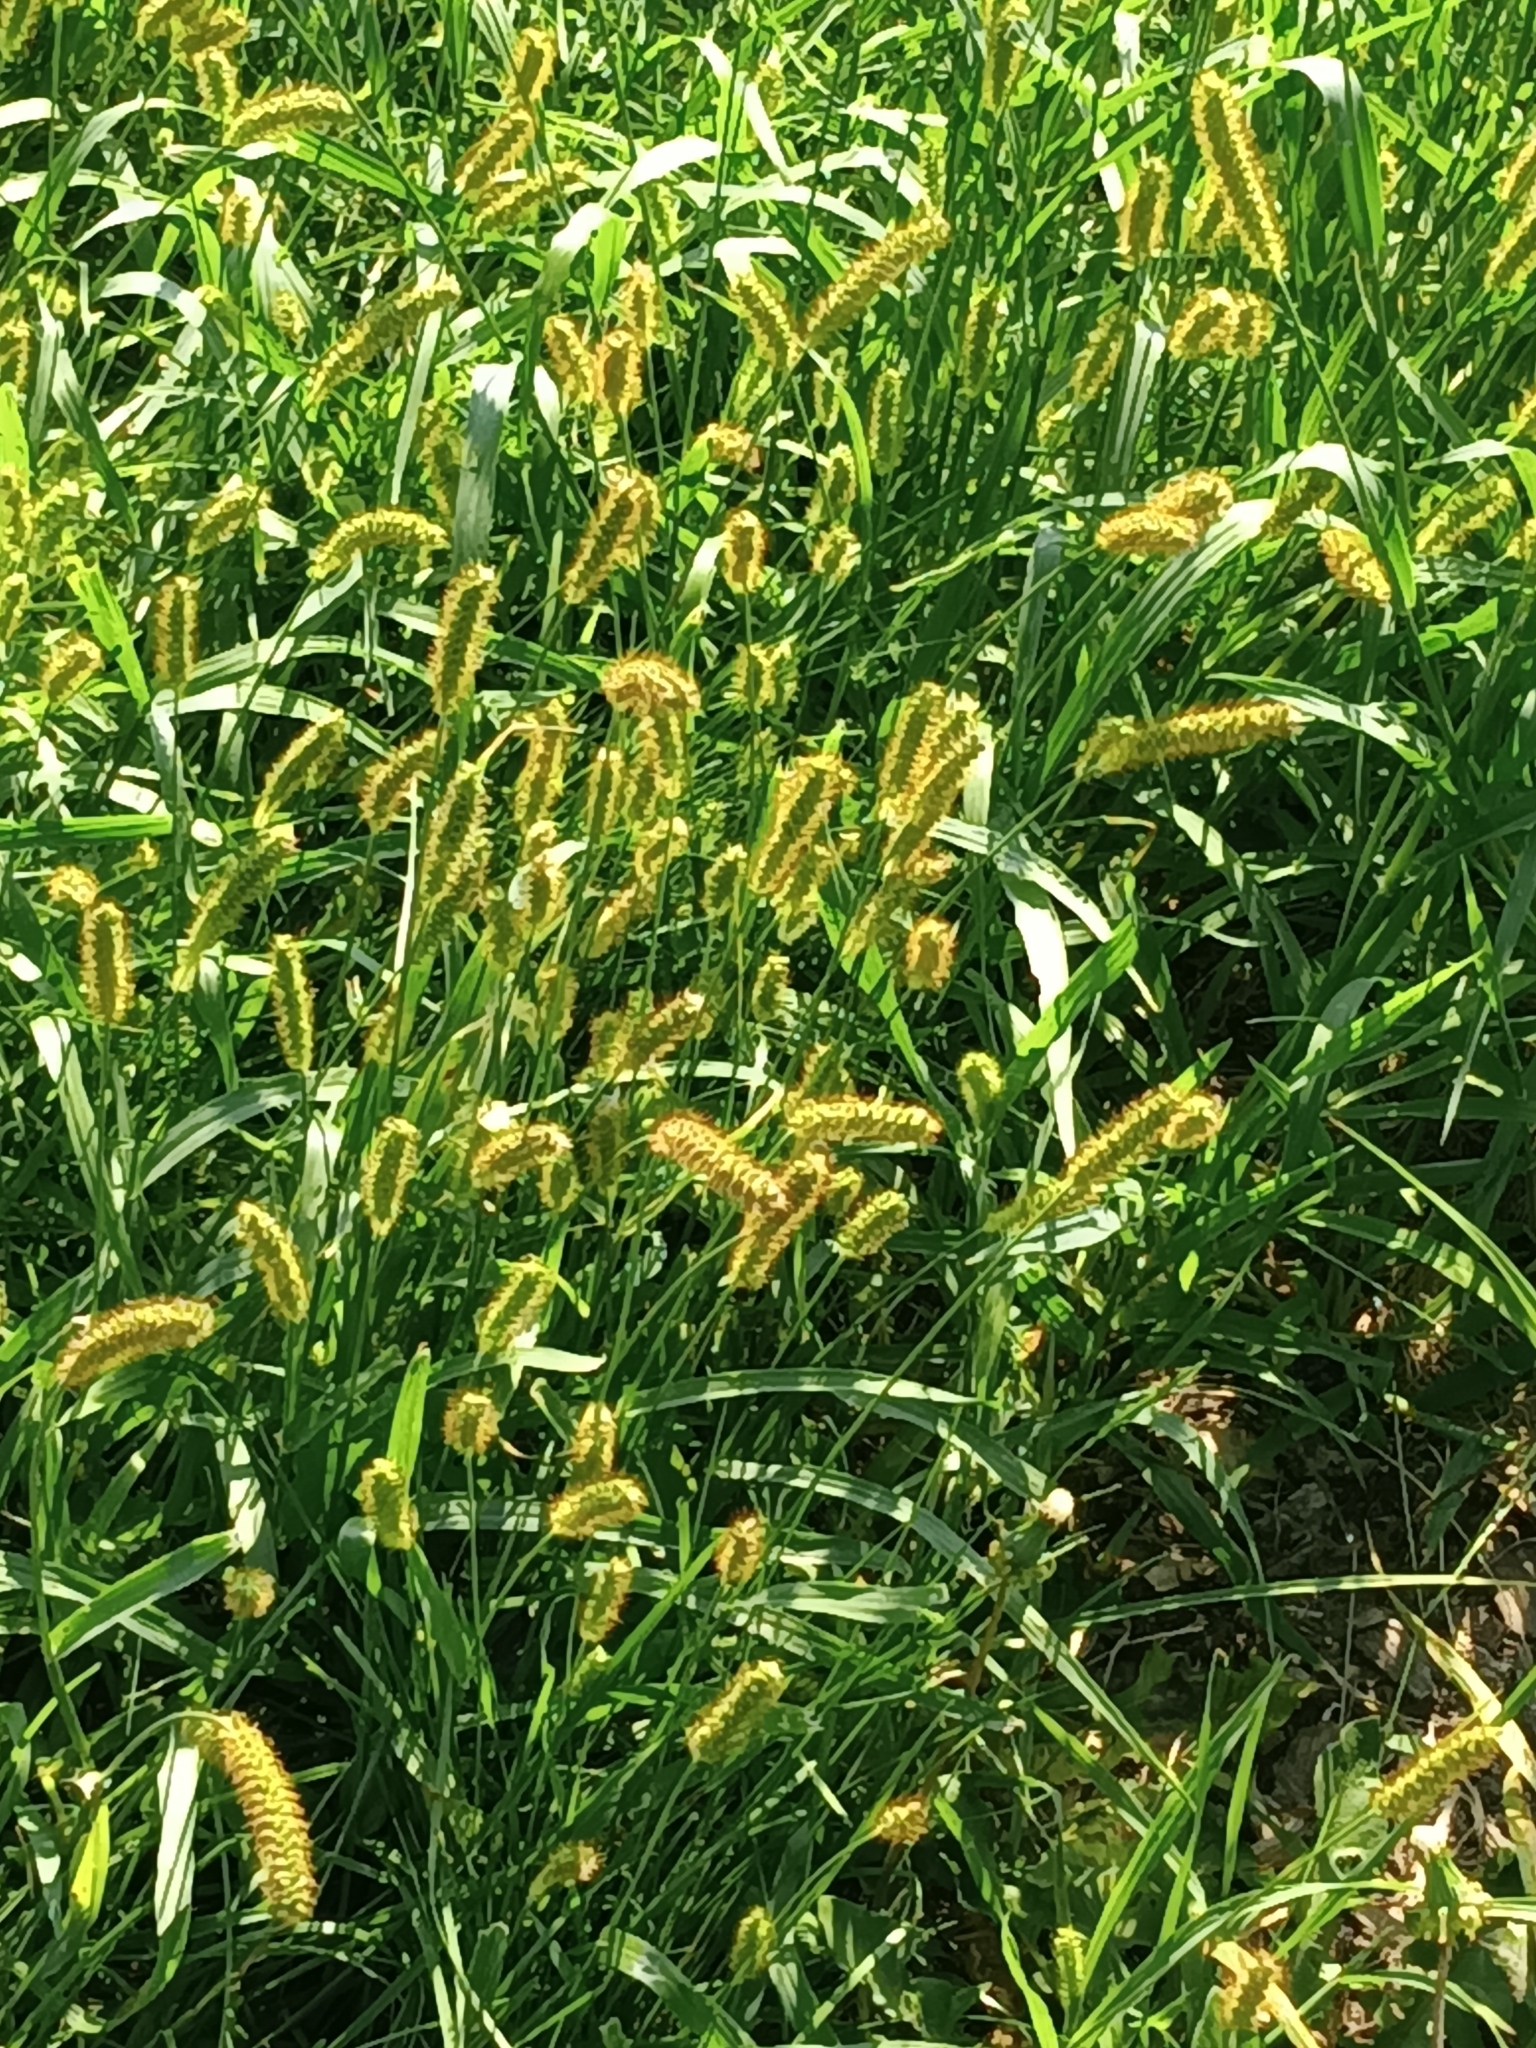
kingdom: Plantae
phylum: Tracheophyta
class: Liliopsida
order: Poales
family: Poaceae
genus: Setaria
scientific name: Setaria pumila
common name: Yellow bristle-grass
